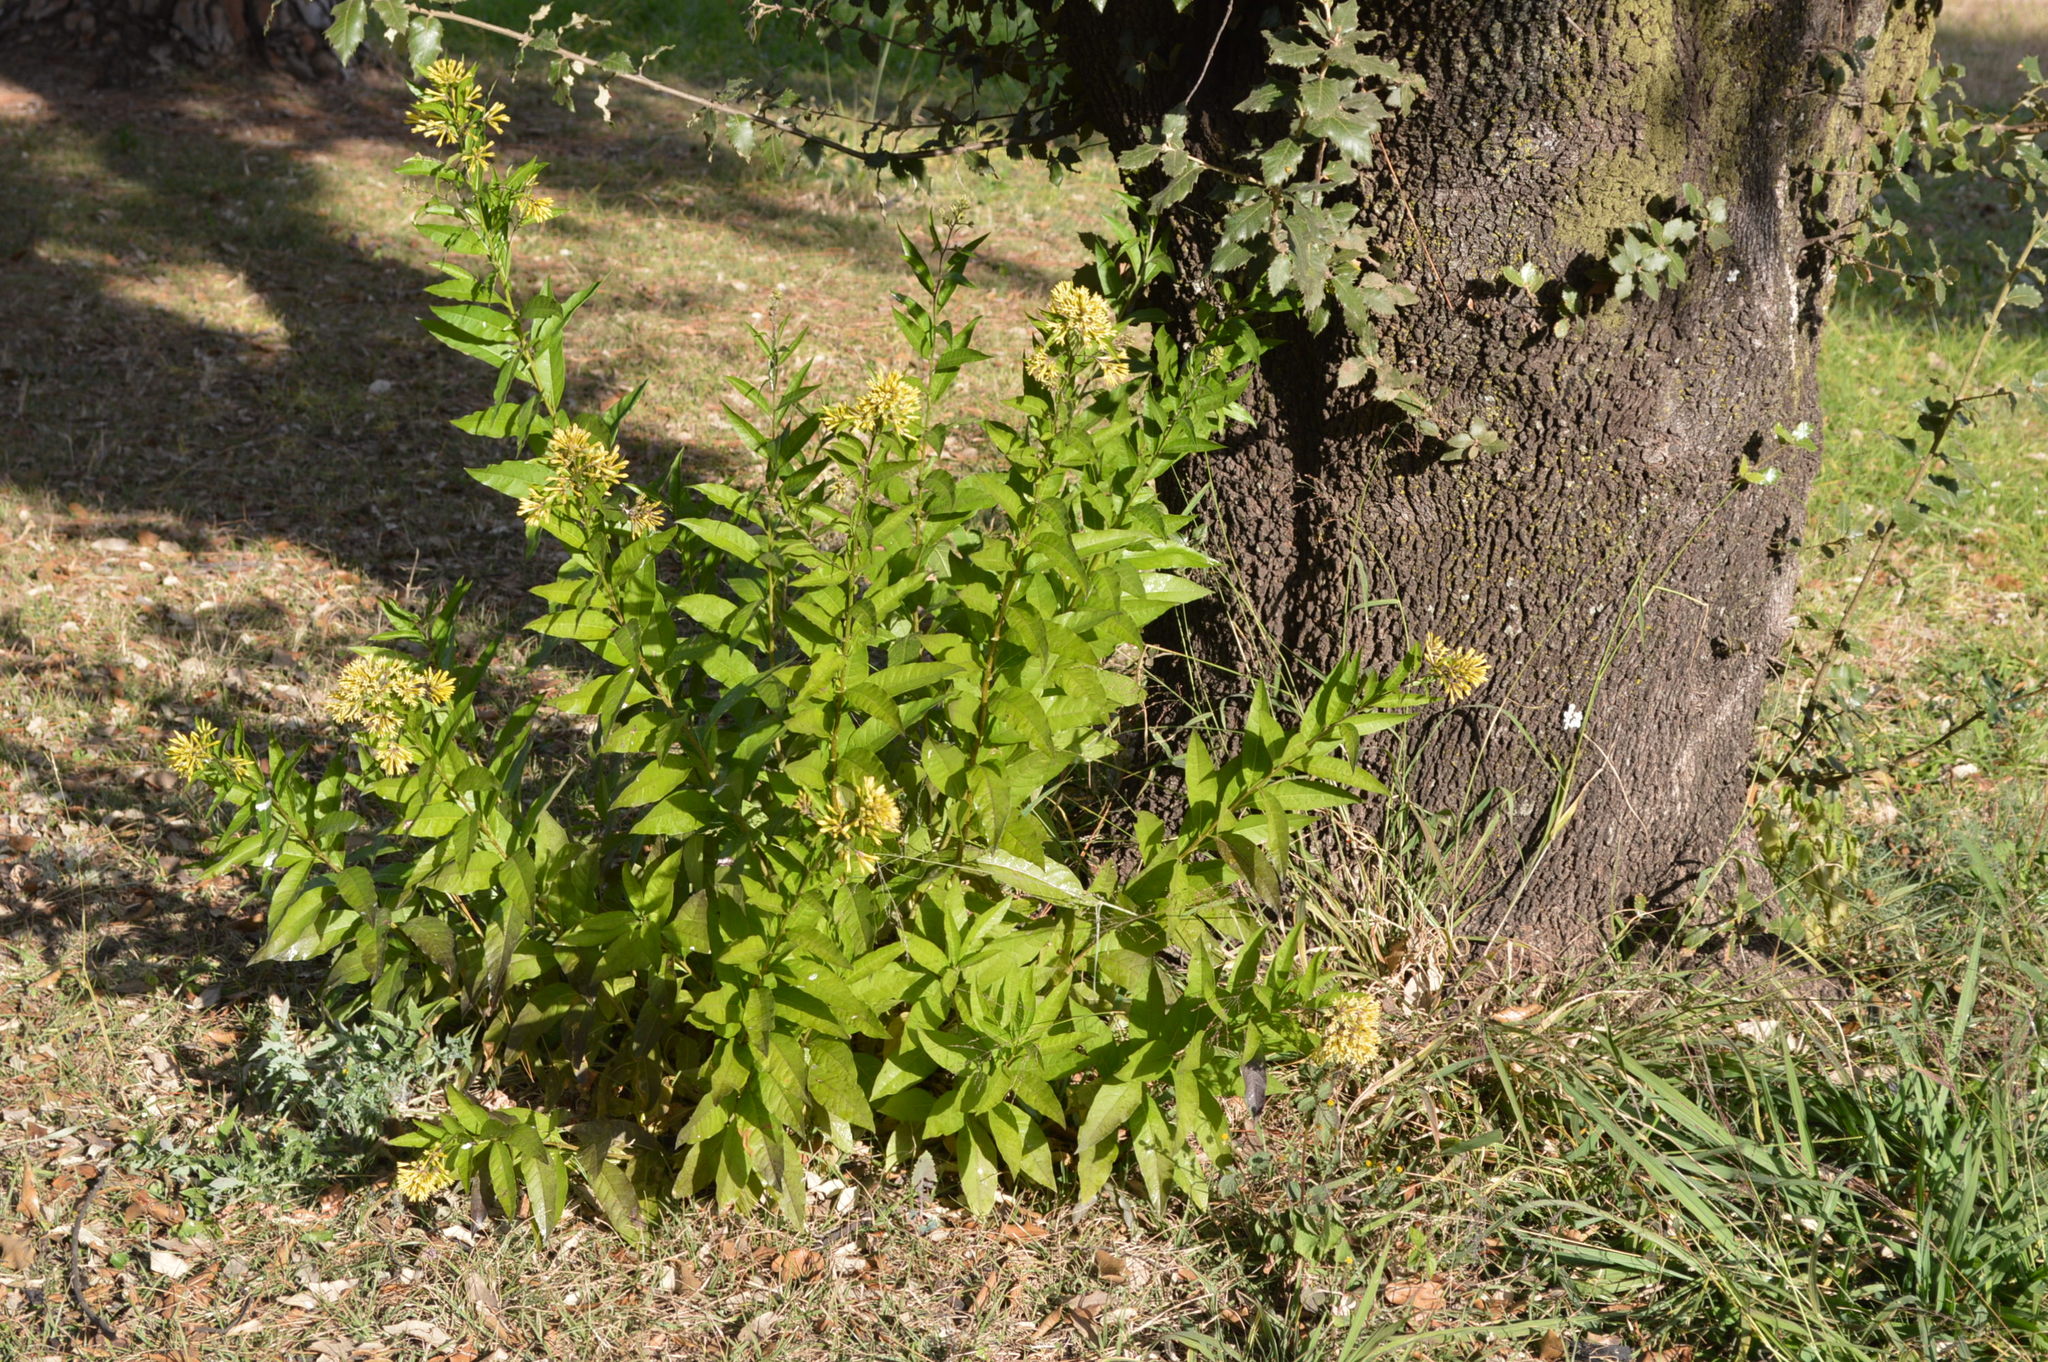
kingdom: Plantae
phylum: Tracheophyta
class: Magnoliopsida
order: Solanales
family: Solanaceae
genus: Cestrum
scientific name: Cestrum parqui
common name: Chilean cestrum
